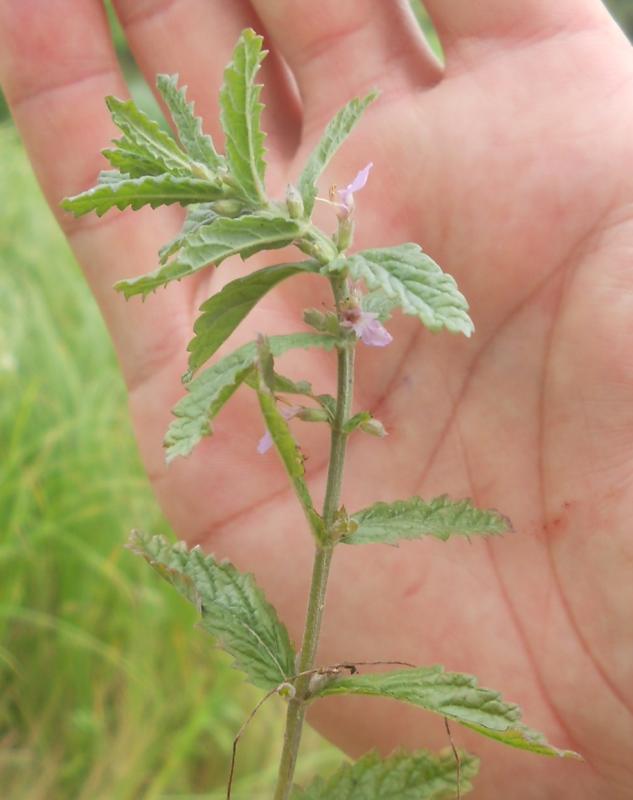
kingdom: Plantae
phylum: Tracheophyta
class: Magnoliopsida
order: Lamiales
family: Lamiaceae
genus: Teucrium
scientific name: Teucrium scordium
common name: Water germander
